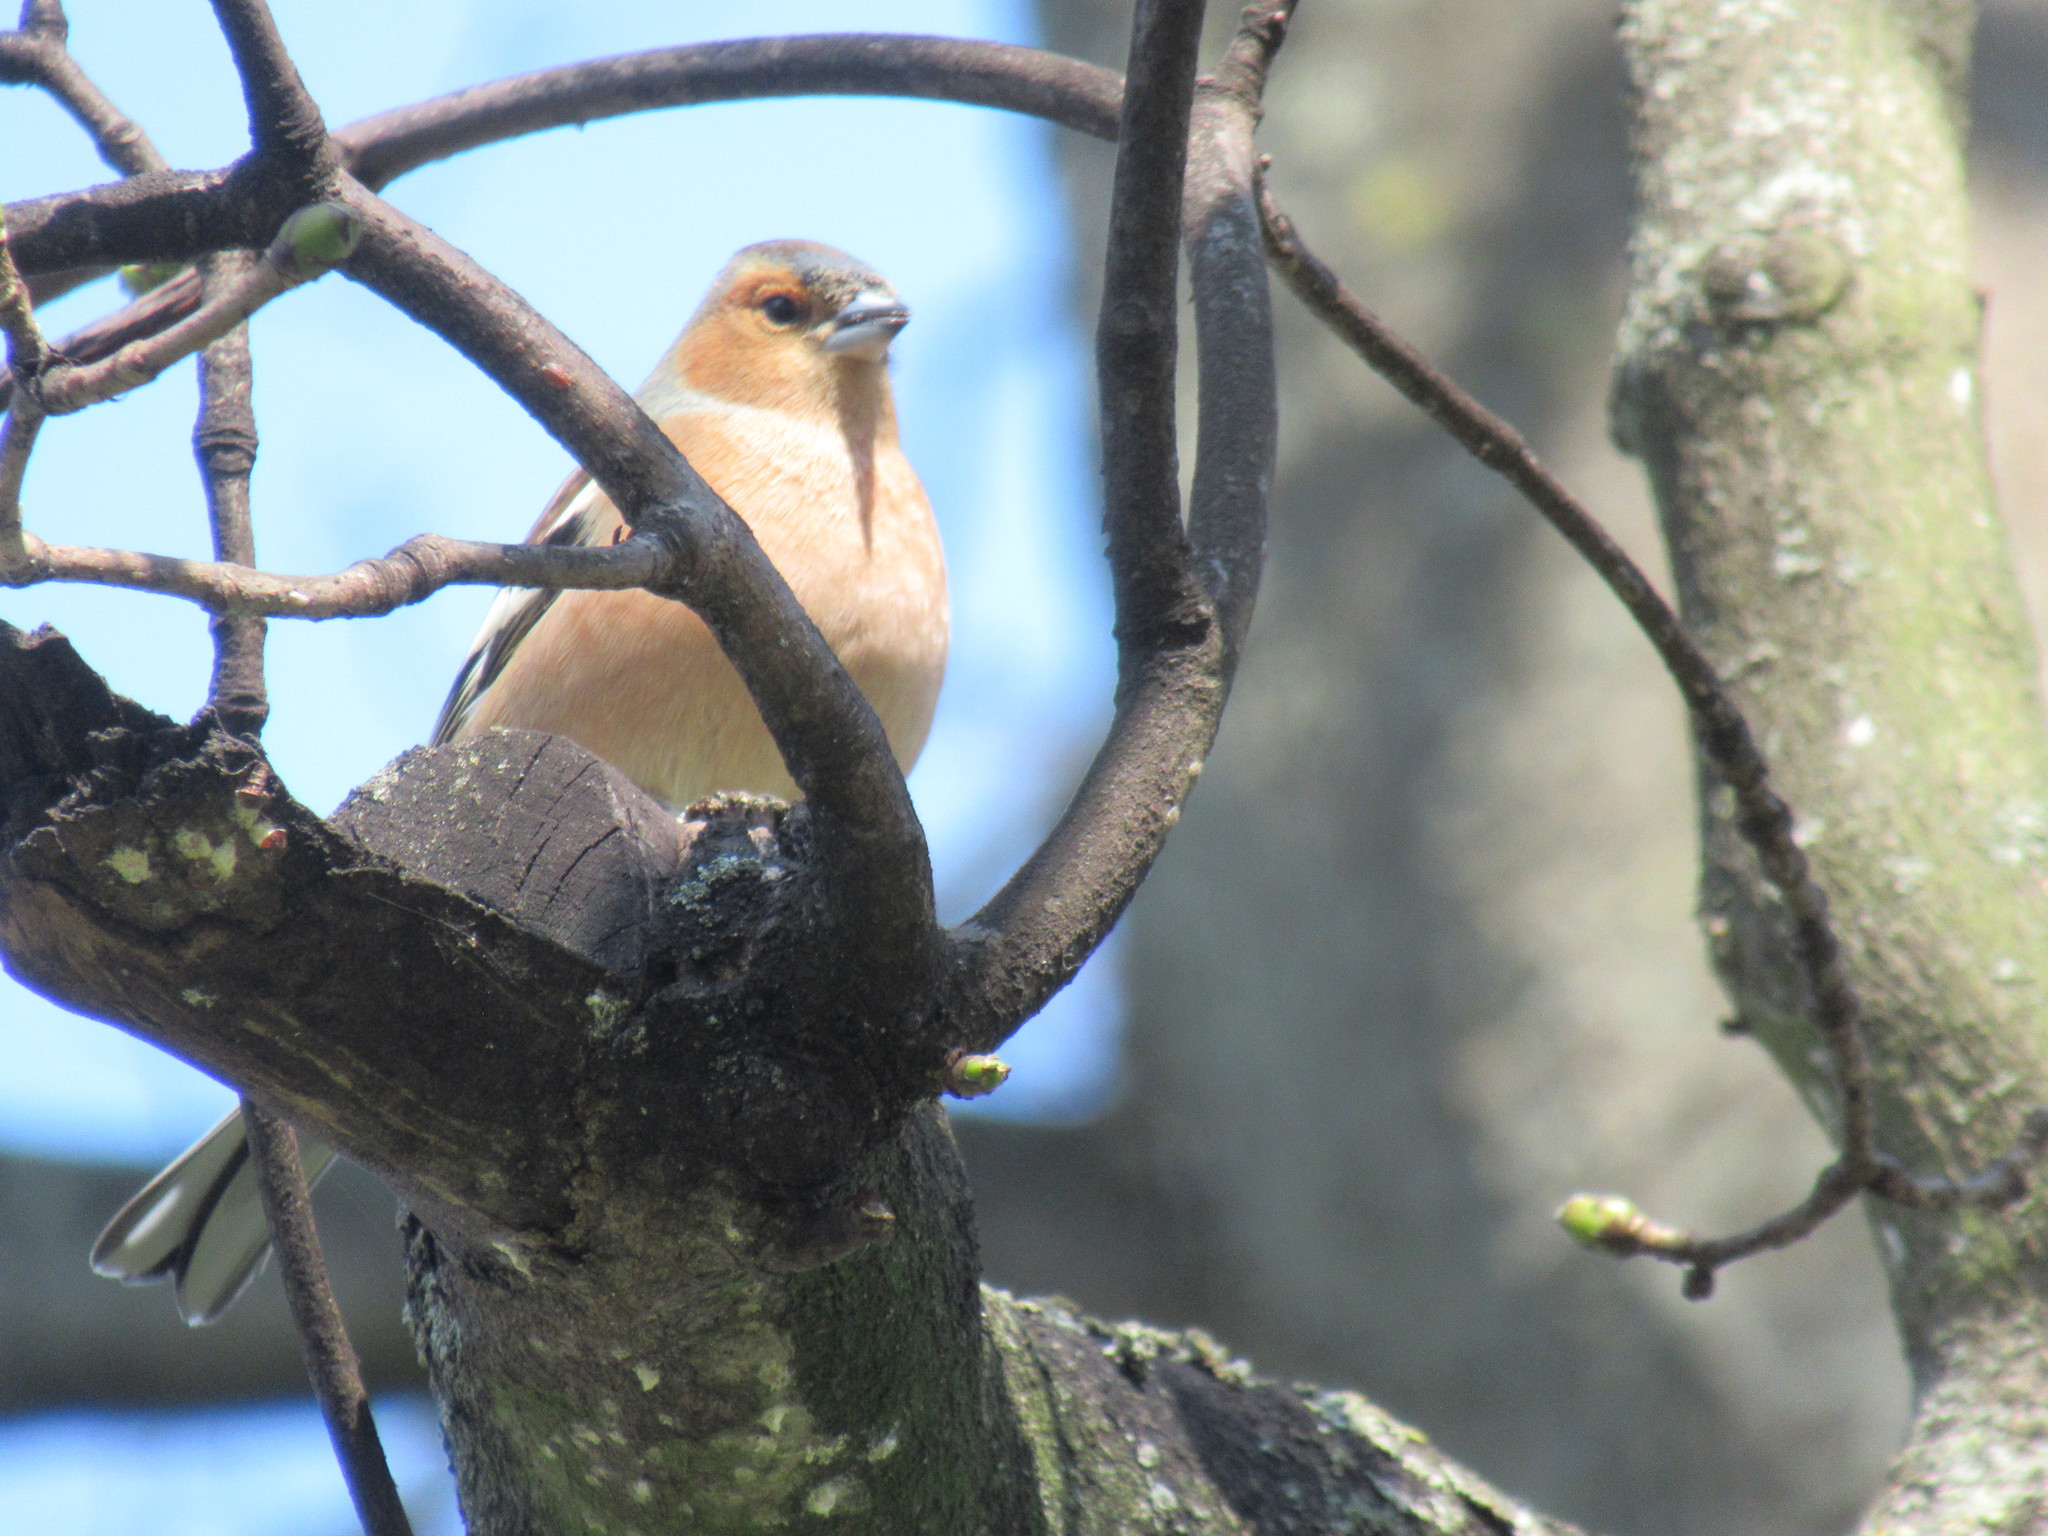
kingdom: Animalia
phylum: Chordata
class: Aves
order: Passeriformes
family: Fringillidae
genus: Fringilla
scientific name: Fringilla coelebs
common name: Common chaffinch
